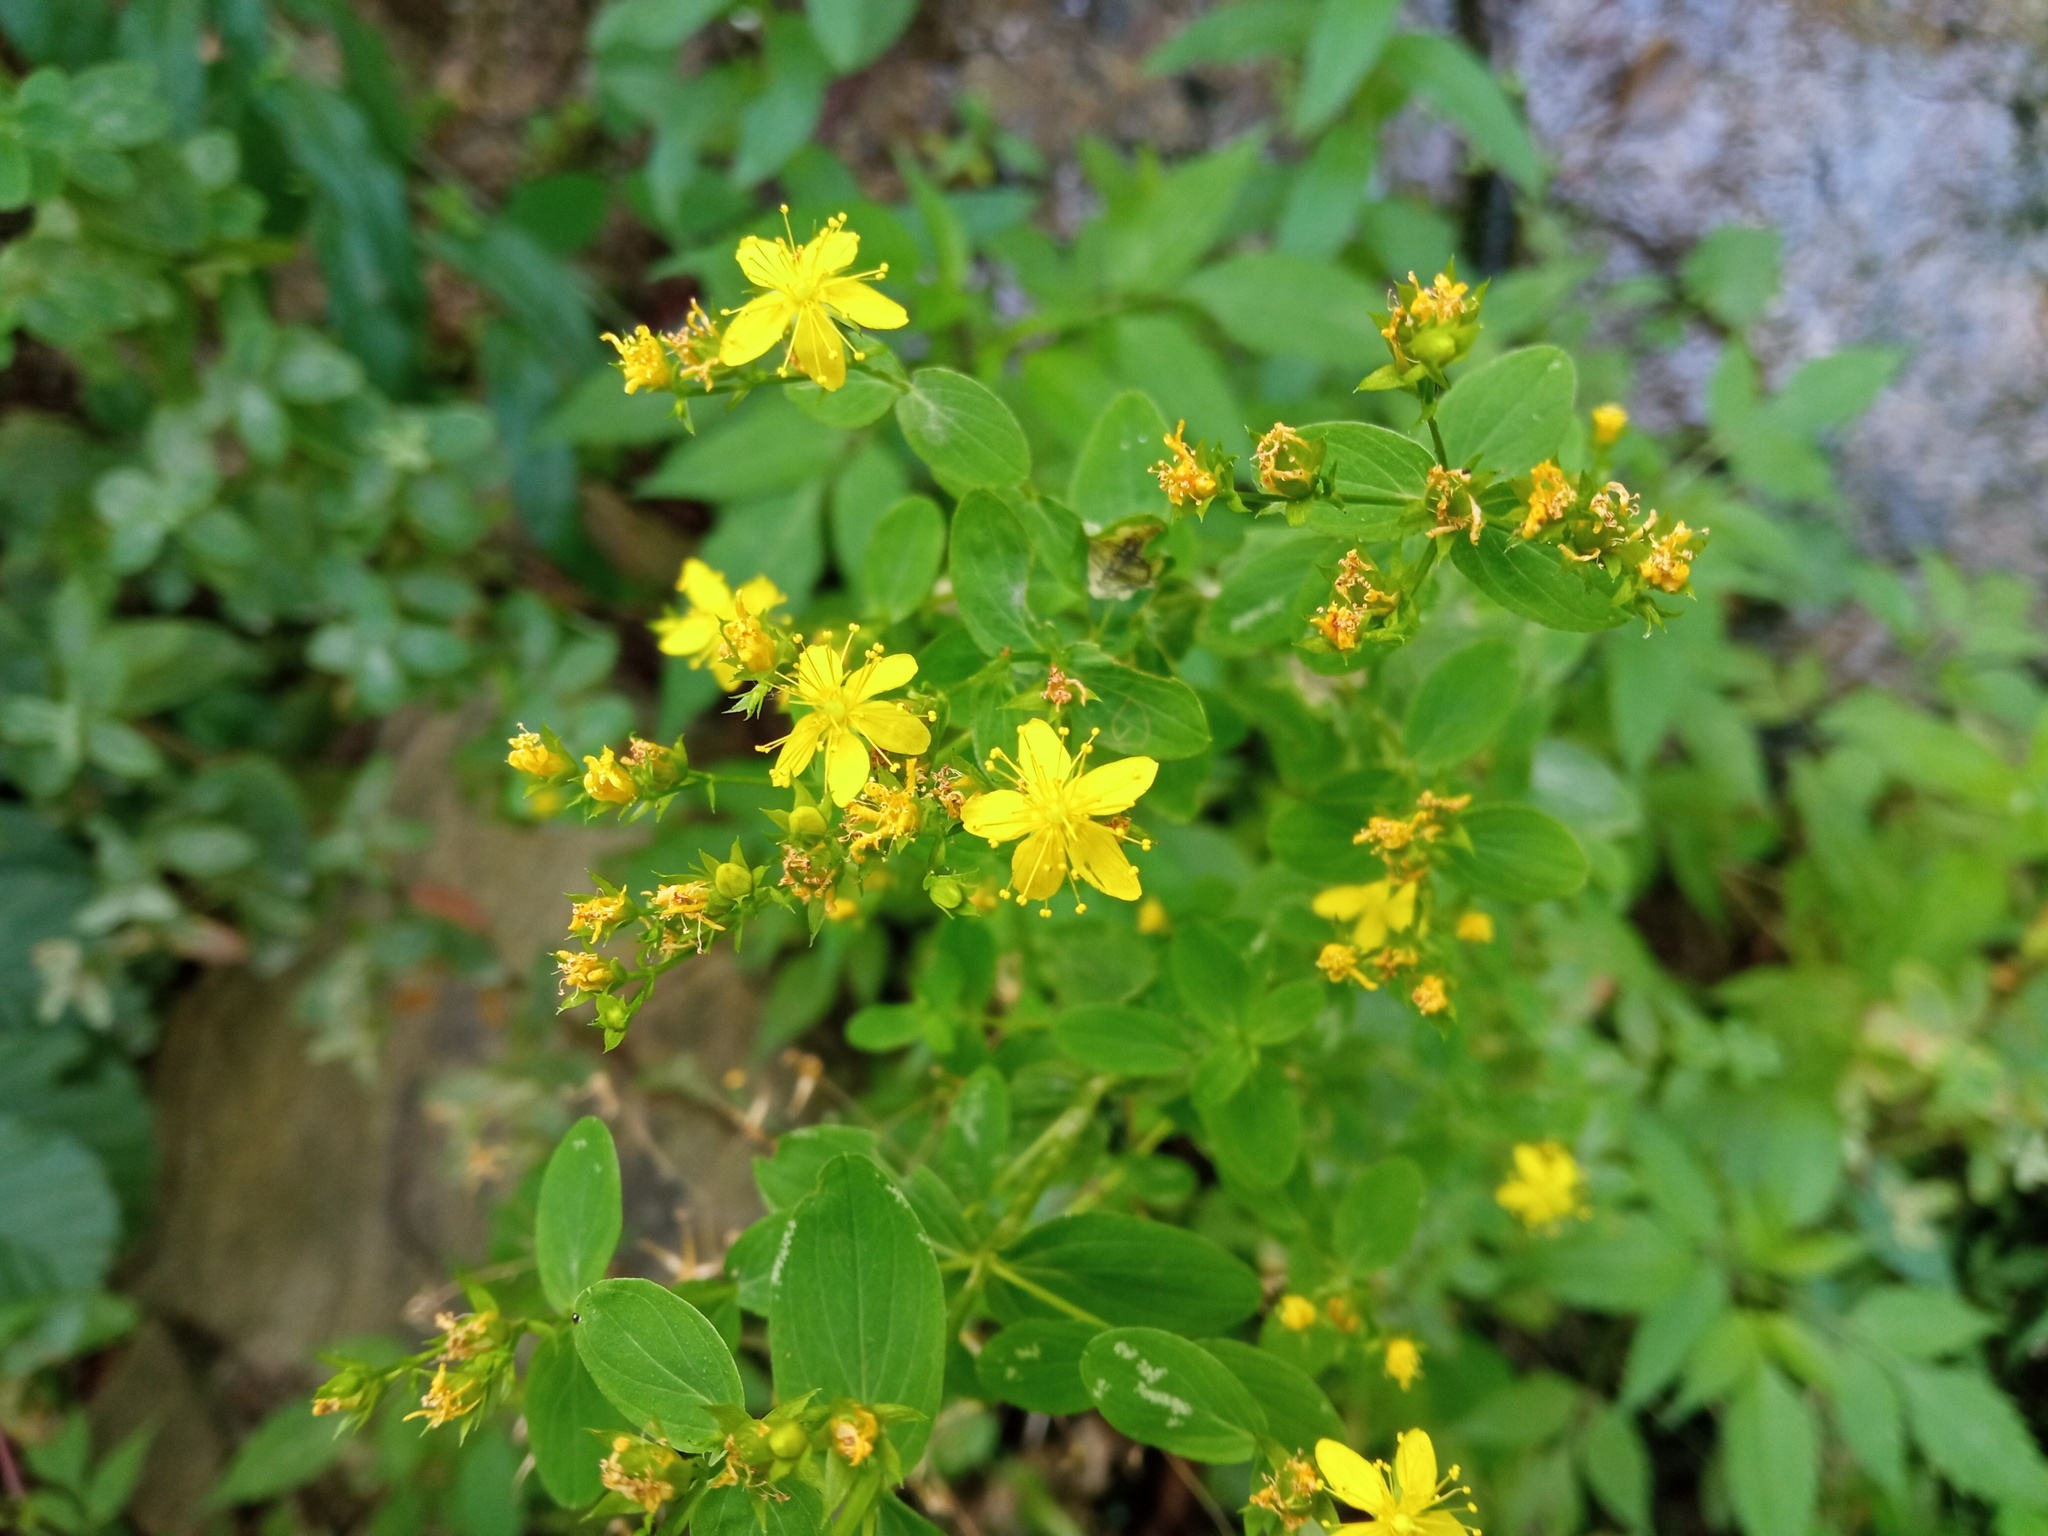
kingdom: Plantae
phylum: Tracheophyta
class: Magnoliopsida
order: Malpighiales
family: Hypericaceae
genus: Hypericum
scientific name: Hypericum tetrapterum
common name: Square-stalked st. john's-wort
